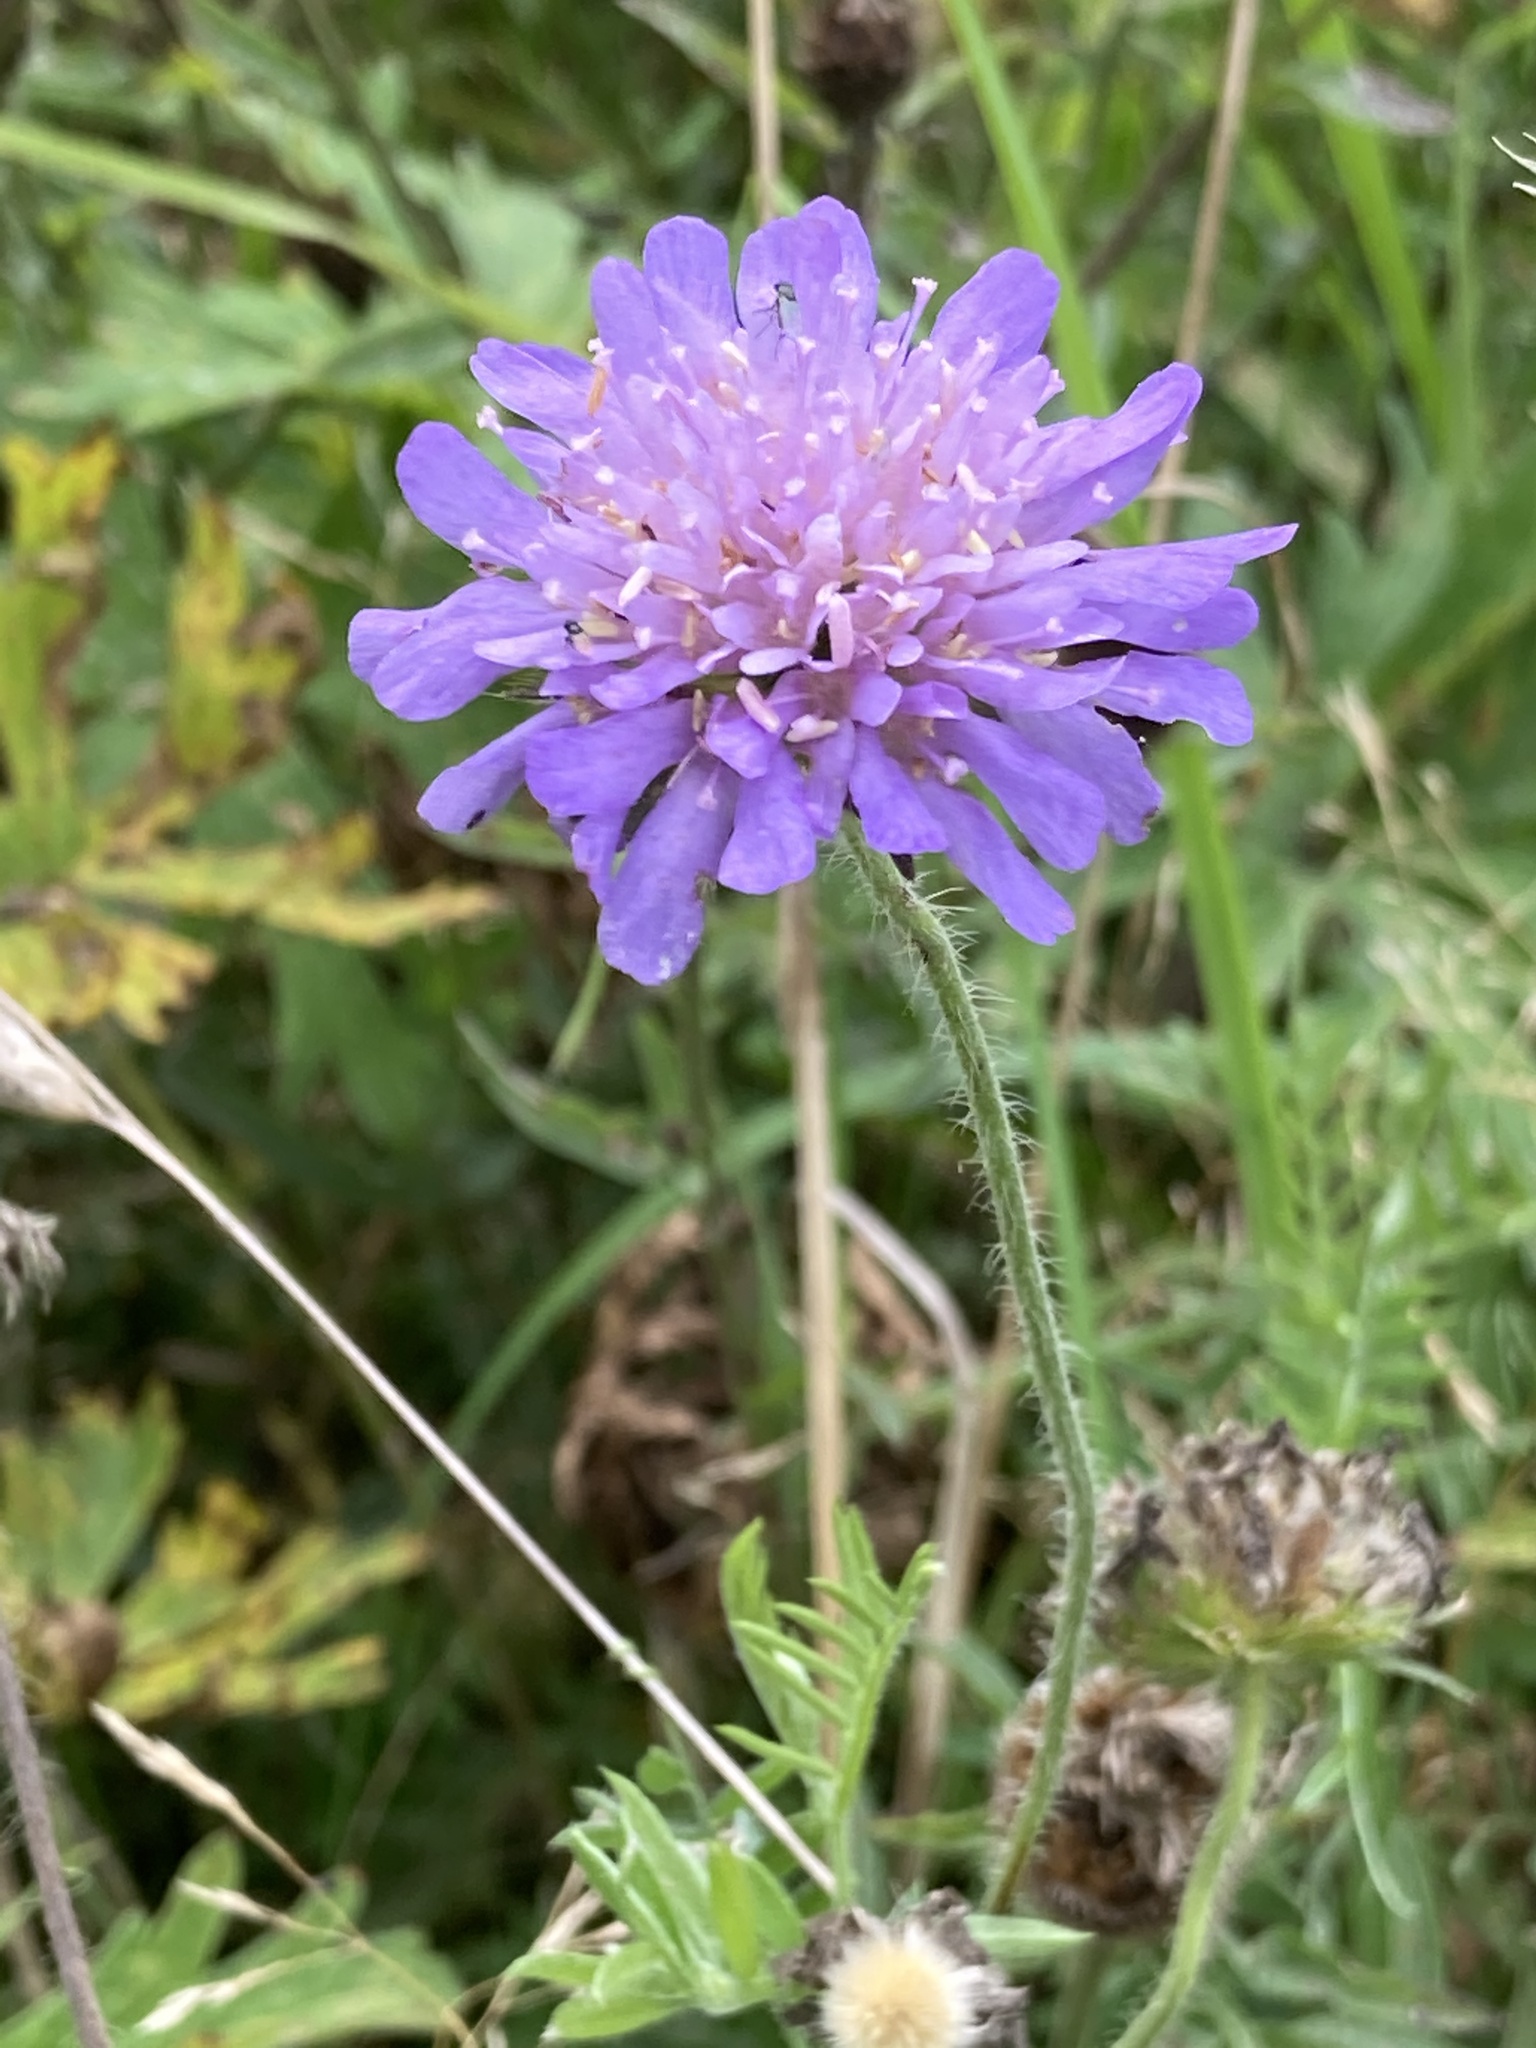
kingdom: Plantae
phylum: Tracheophyta
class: Magnoliopsida
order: Dipsacales
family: Caprifoliaceae
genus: Knautia
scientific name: Knautia arvensis
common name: Field scabiosa
